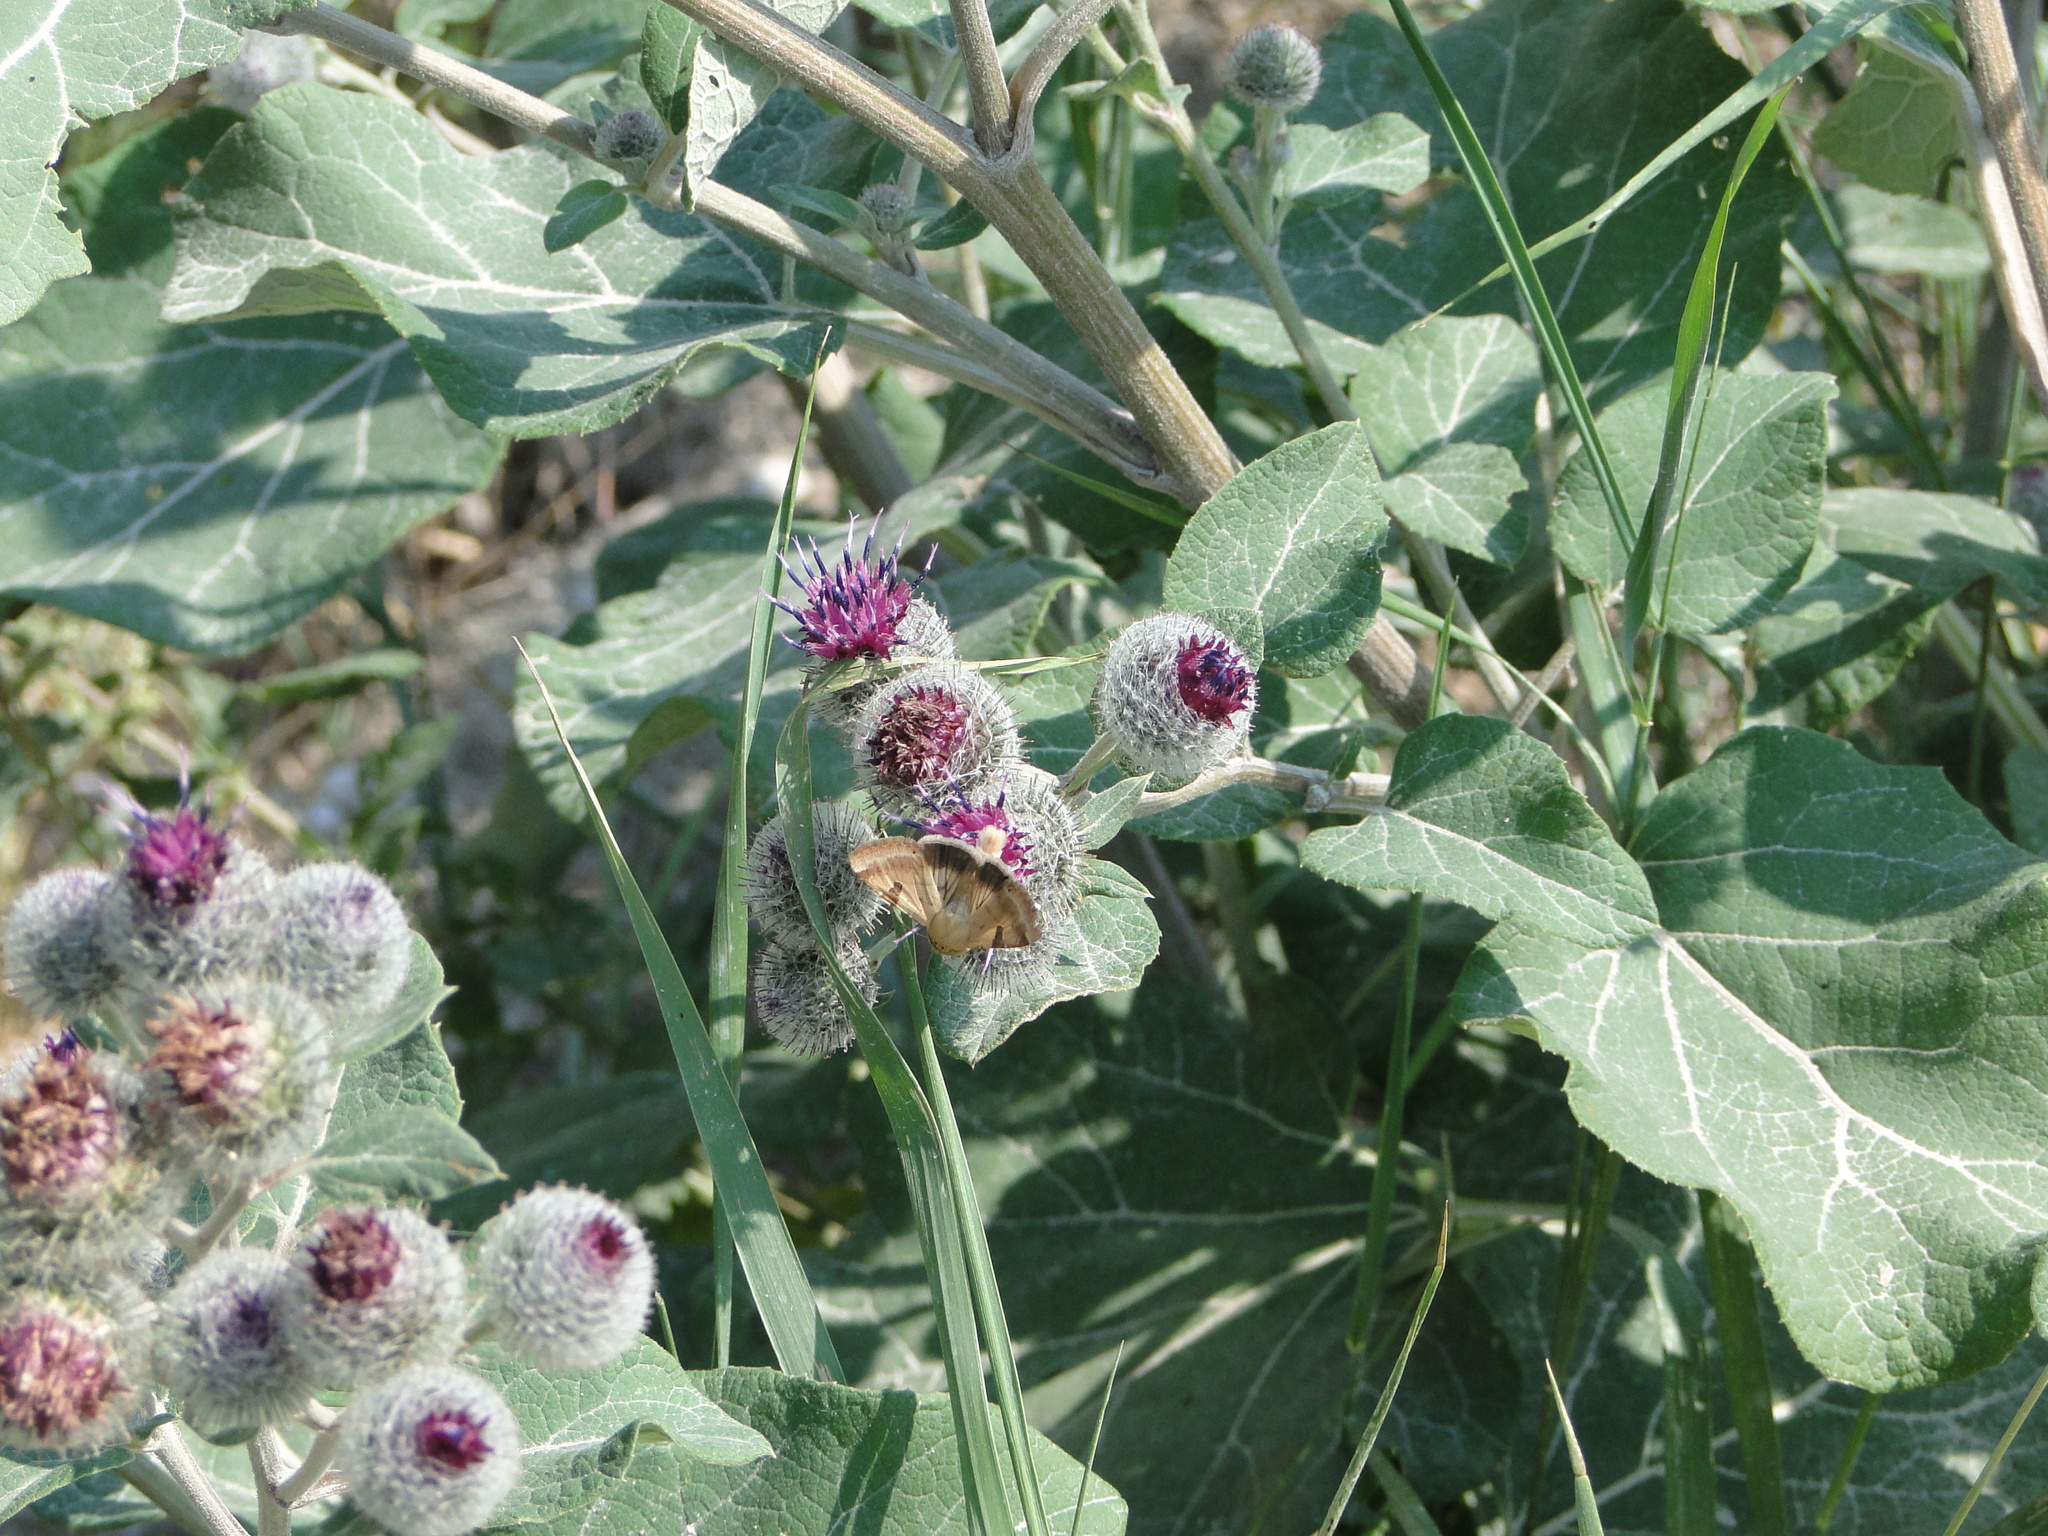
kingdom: Animalia
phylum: Arthropoda
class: Insecta
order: Lepidoptera
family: Noctuidae
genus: Heliothis
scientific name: Heliothis peltigera
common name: Bordered straw
